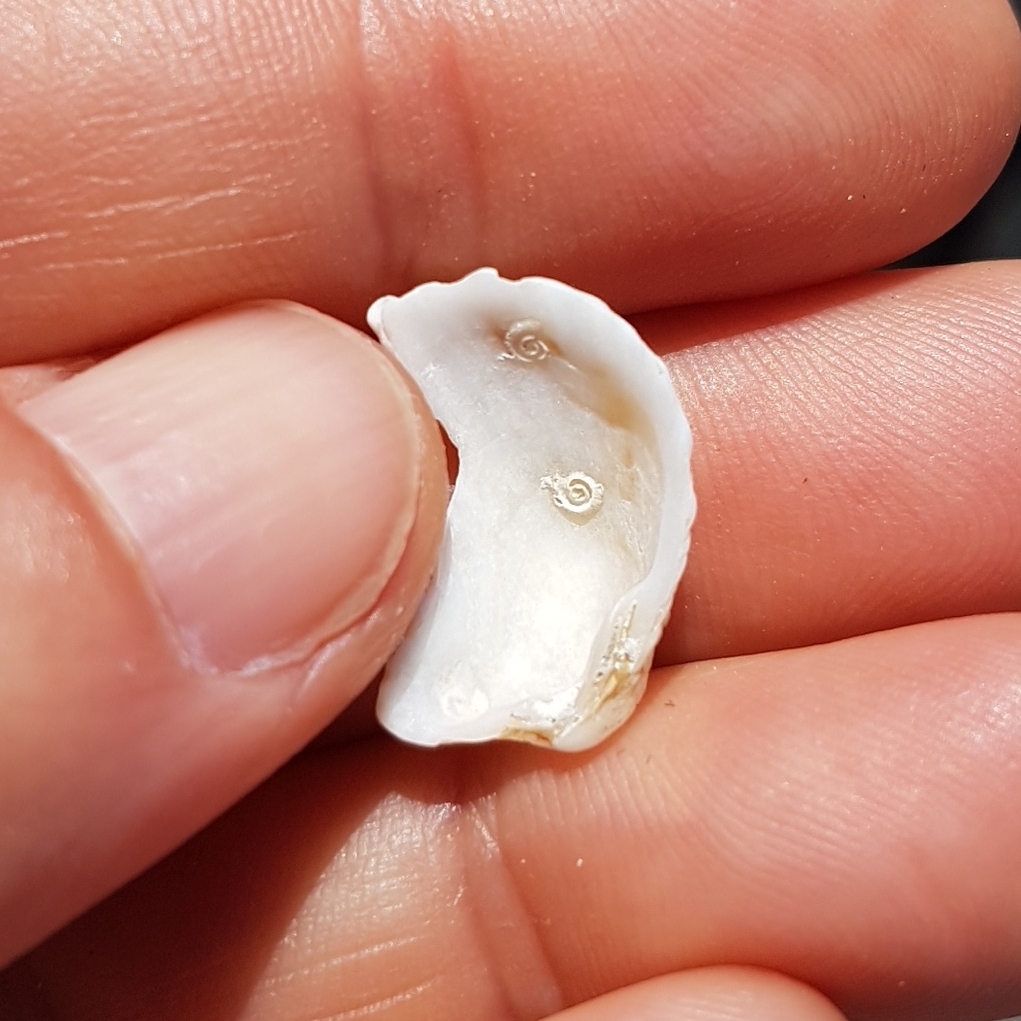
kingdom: Animalia
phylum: Mollusca
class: Bivalvia
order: Carditida
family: Carditidae
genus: Cardites
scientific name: Cardites antiquatus
